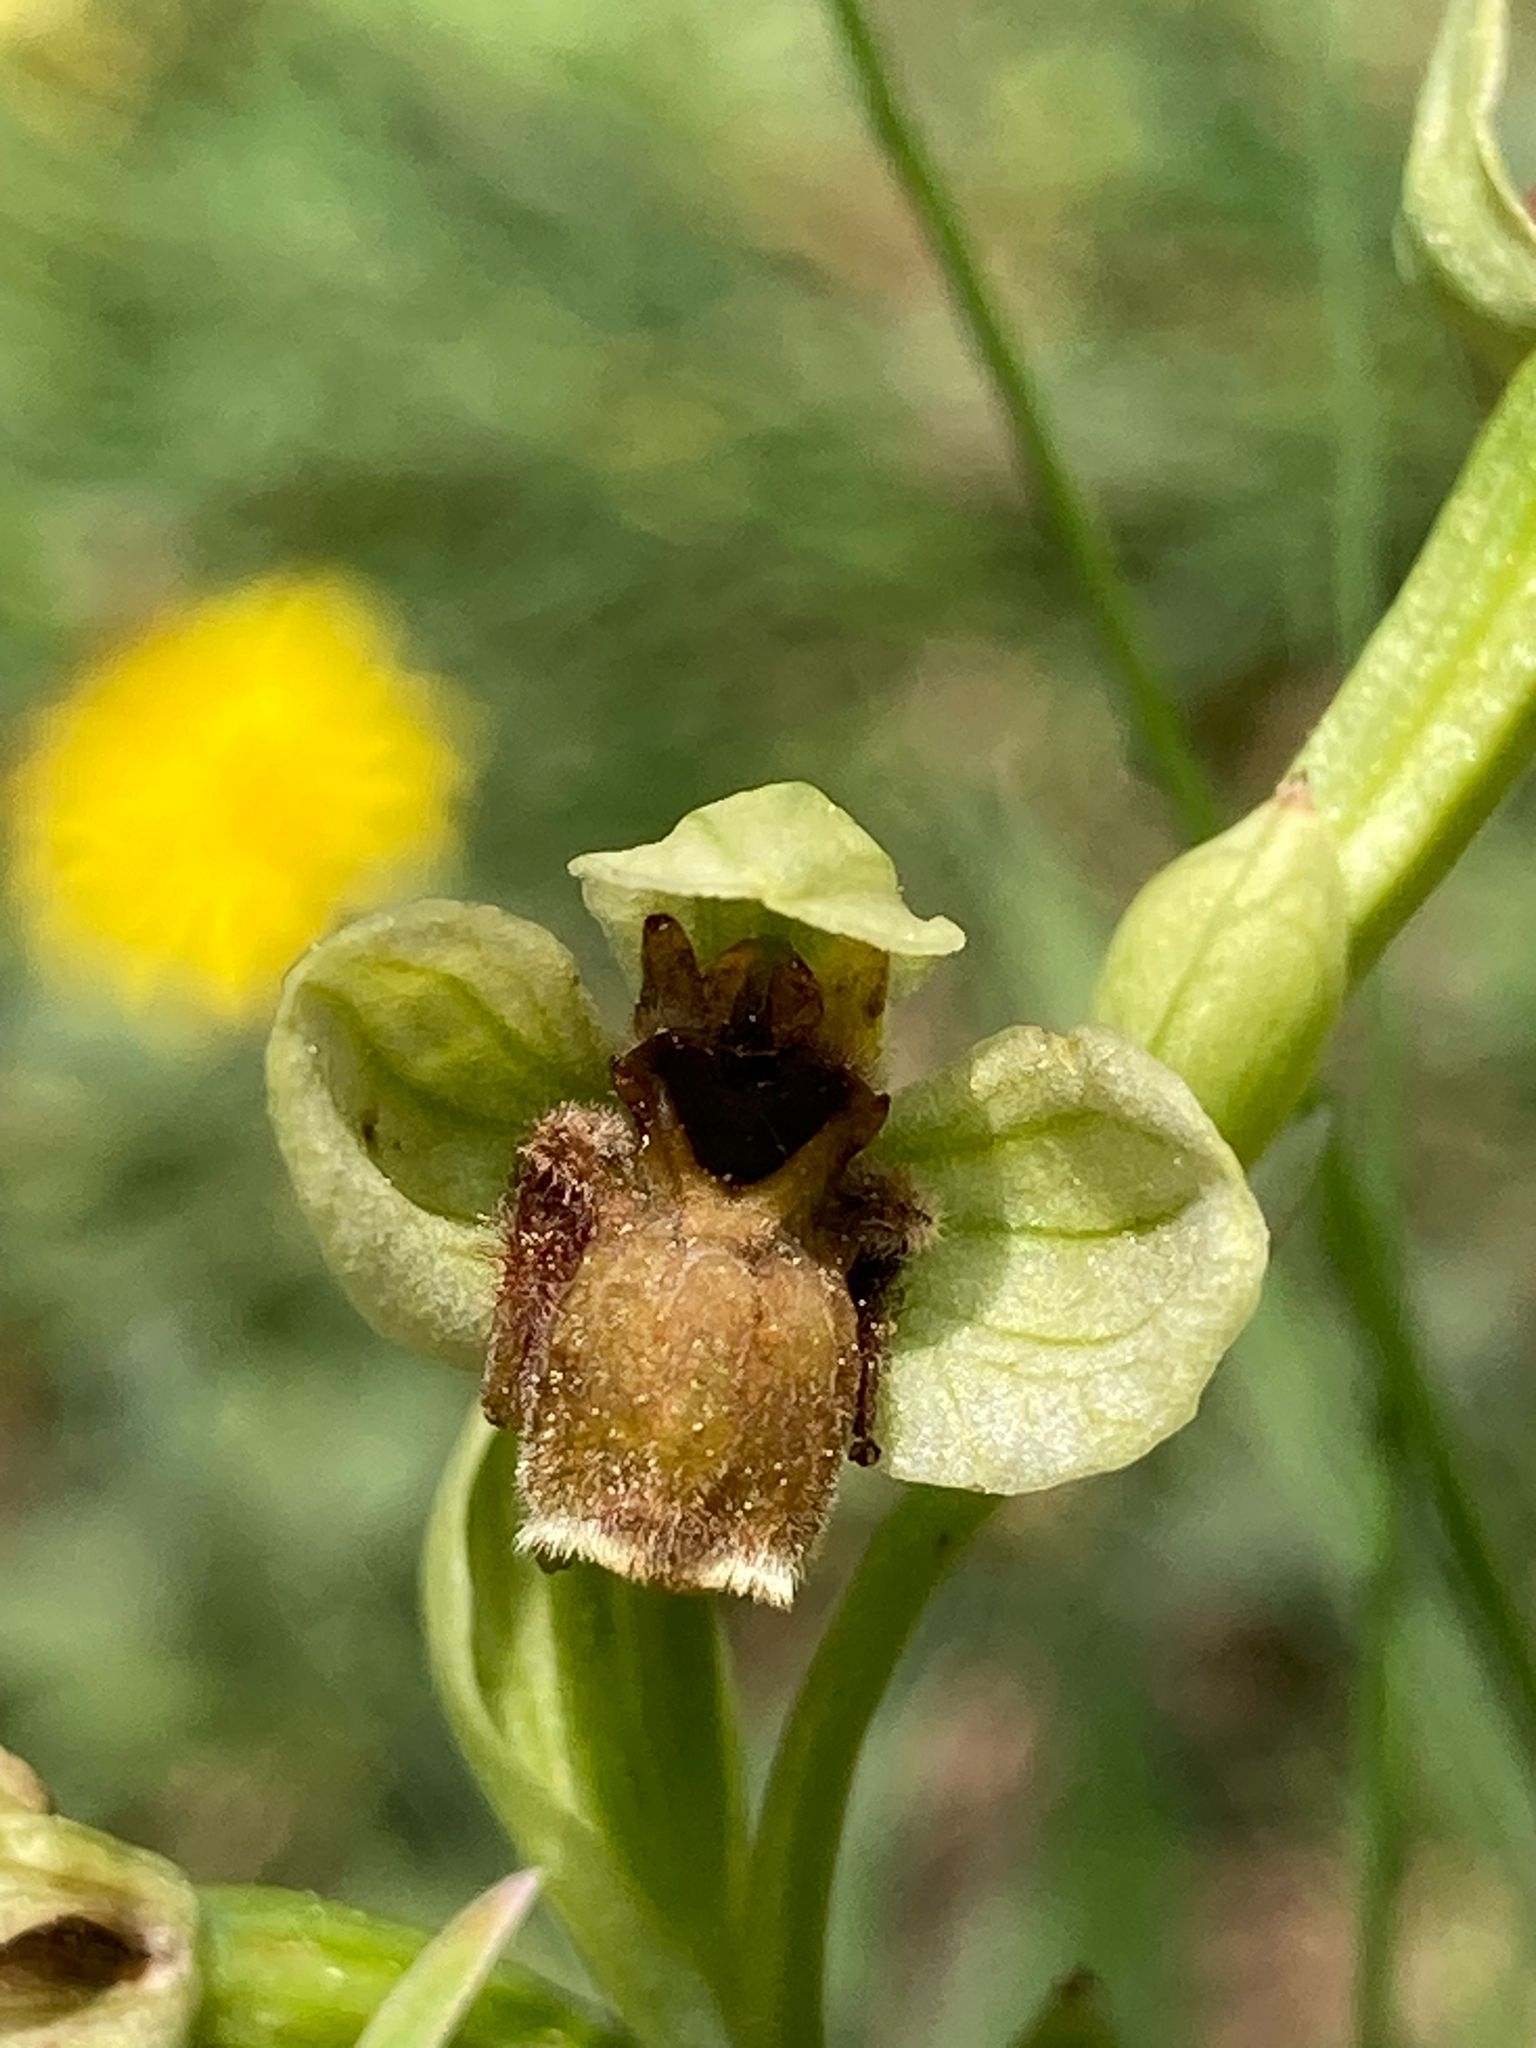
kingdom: Plantae
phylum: Tracheophyta
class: Liliopsida
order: Asparagales
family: Orchidaceae
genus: Ophrys
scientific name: Ophrys bombyliflora
